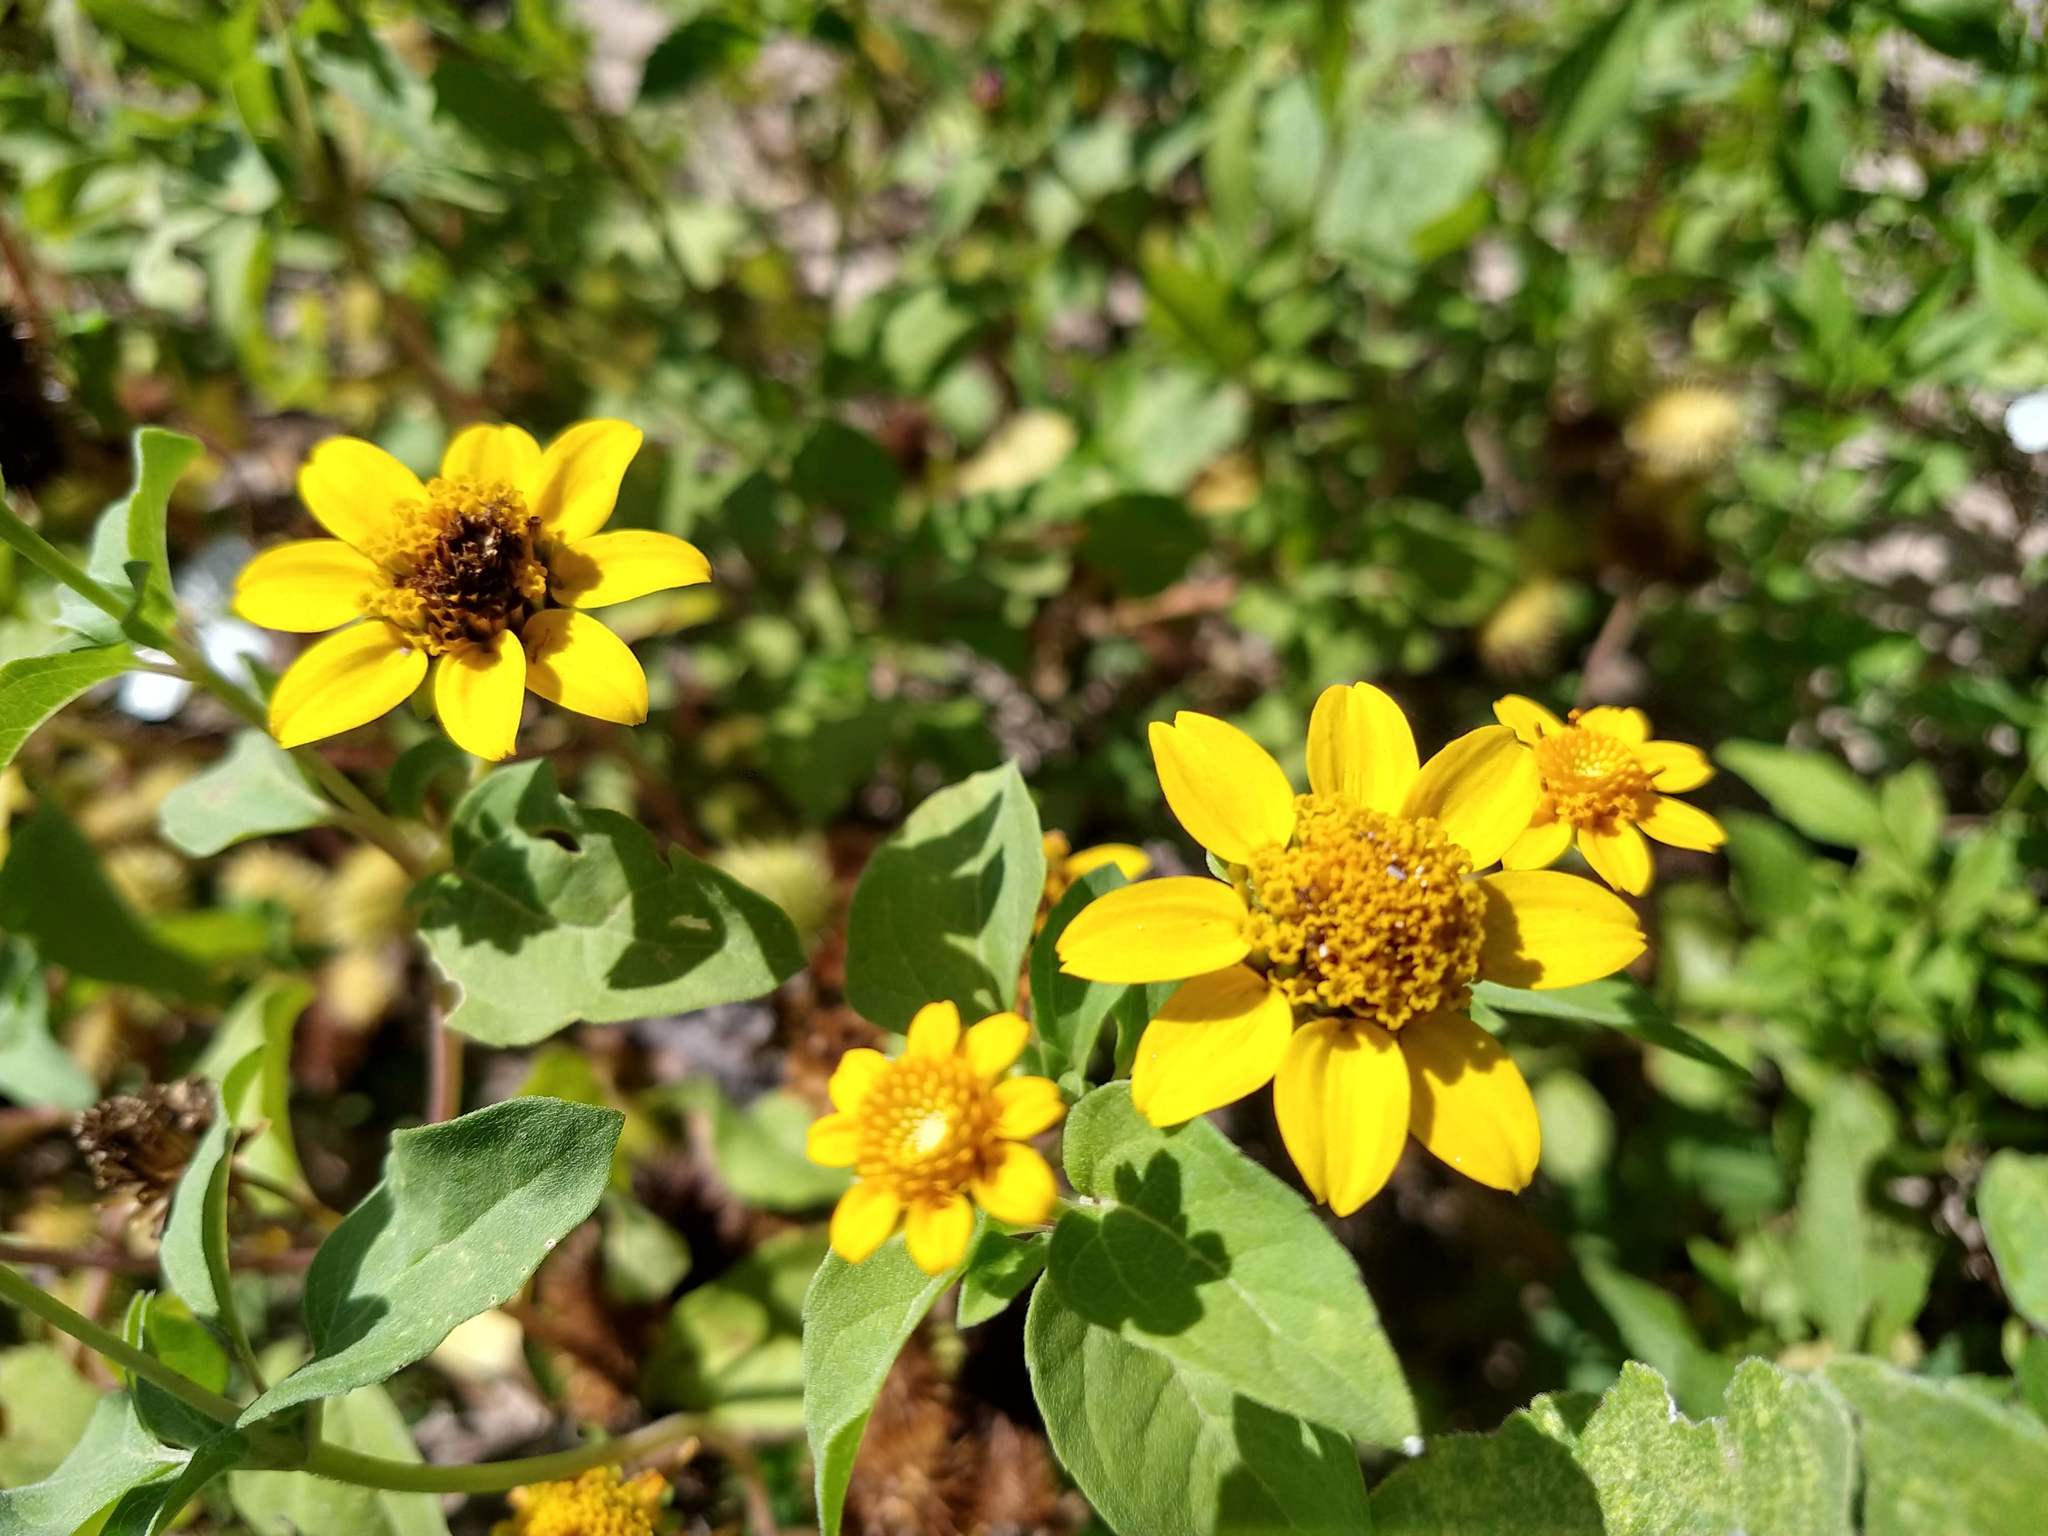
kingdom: Plantae
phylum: Tracheophyta
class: Magnoliopsida
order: Asterales
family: Asteraceae
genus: Heliopsis
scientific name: Heliopsis annua
